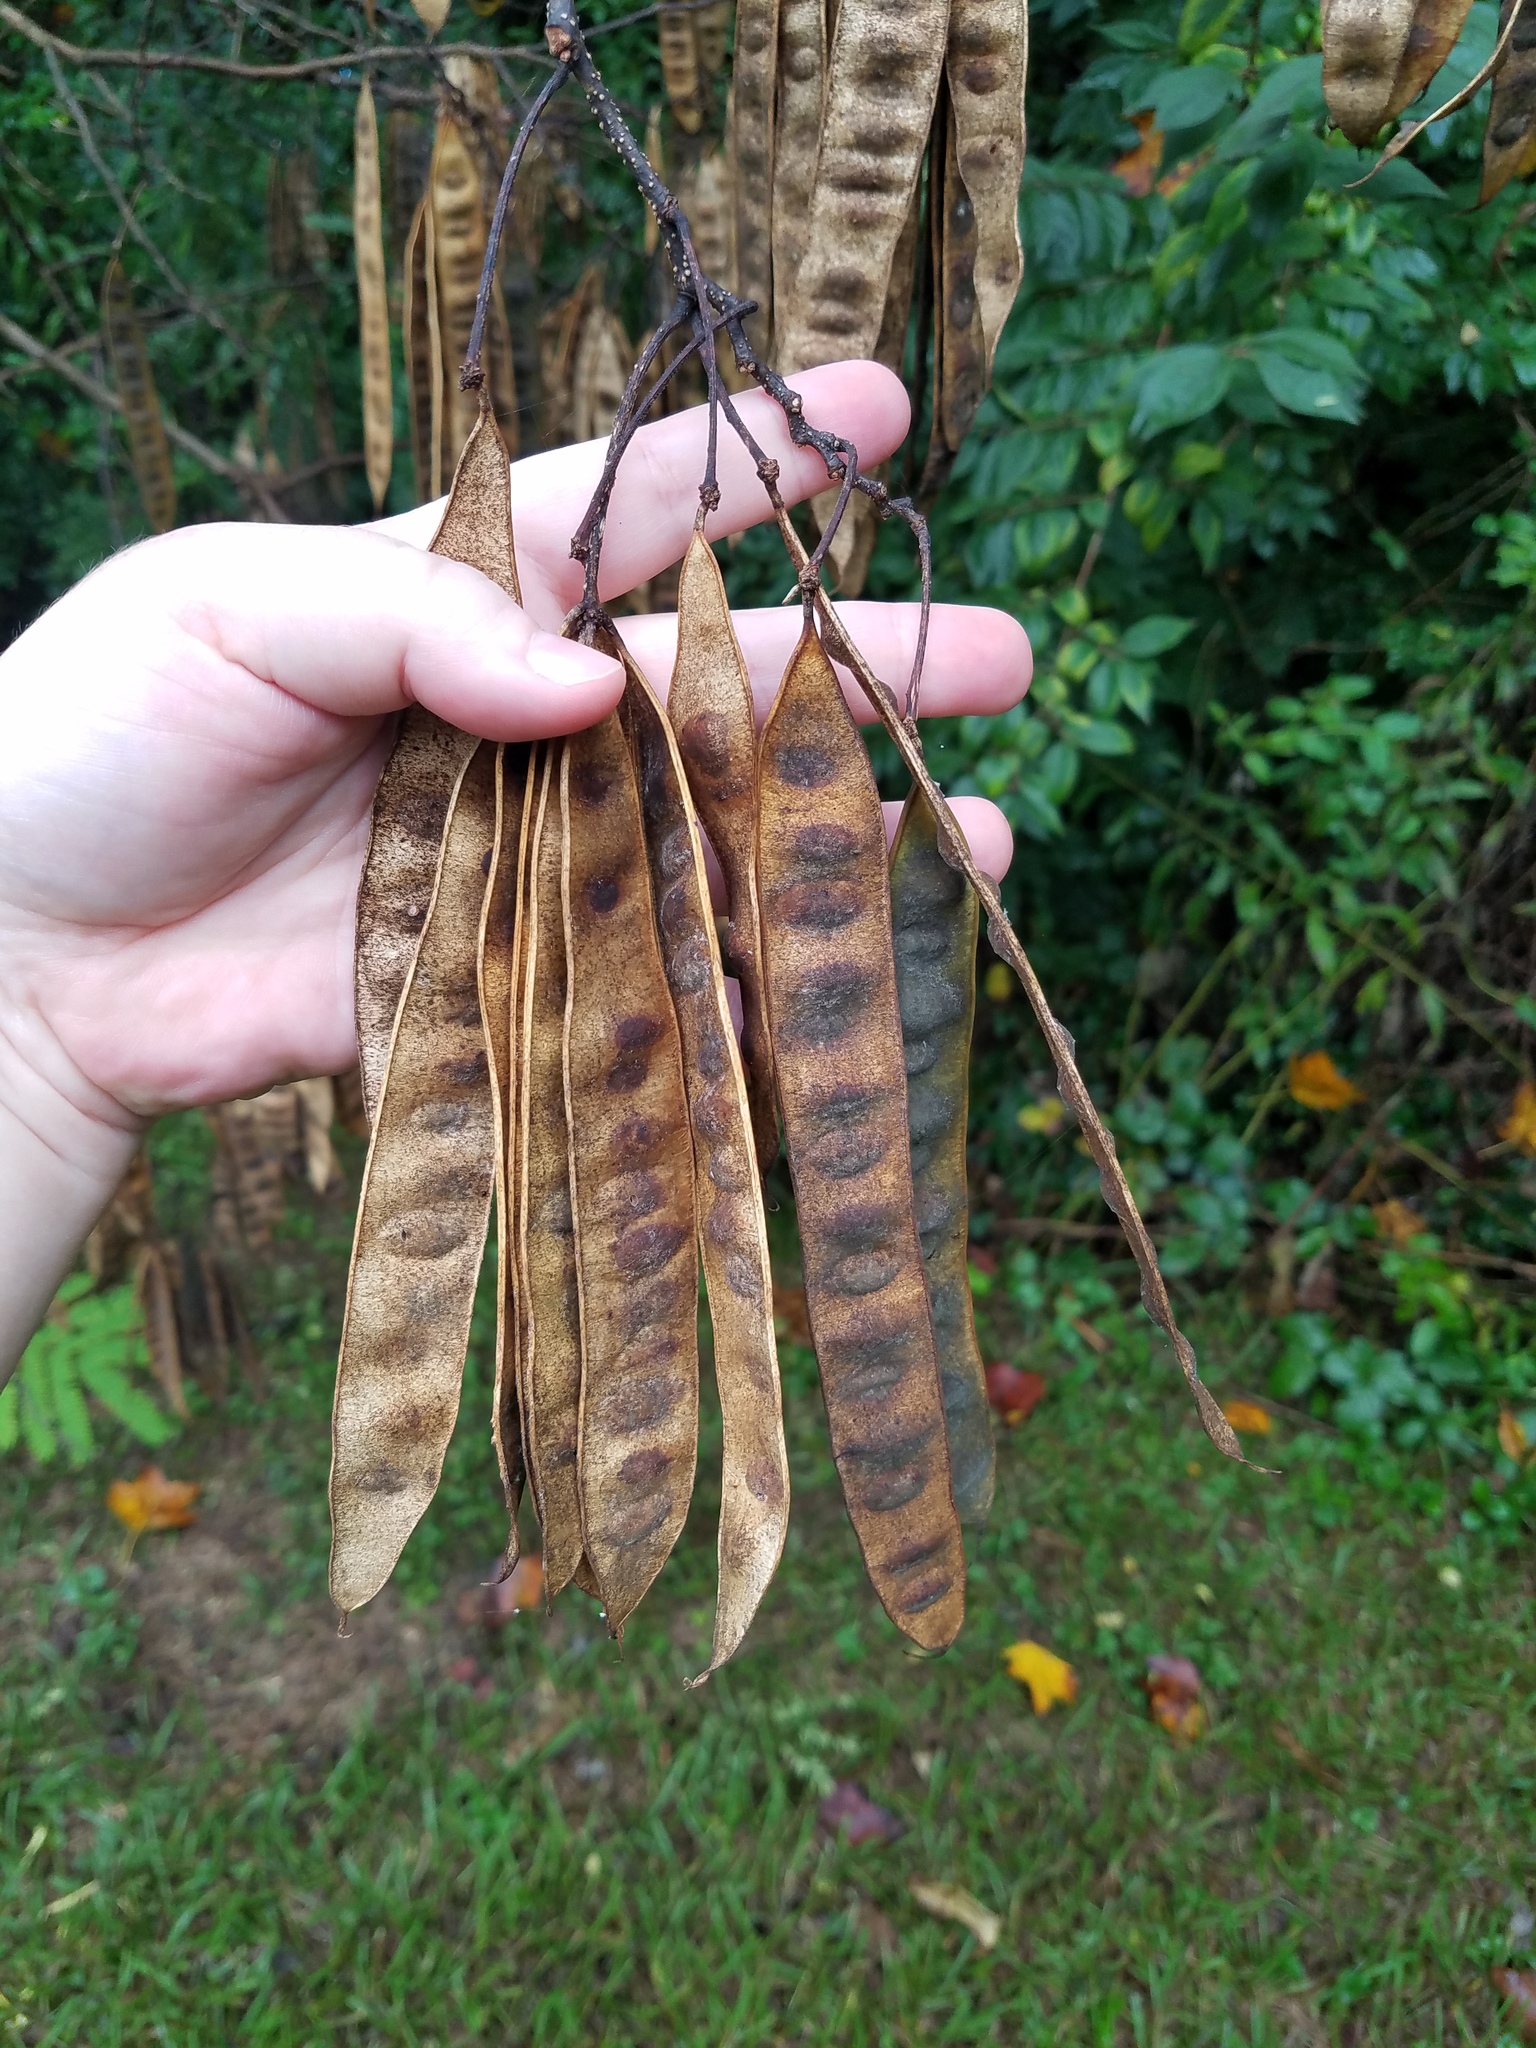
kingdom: Plantae
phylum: Tracheophyta
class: Magnoliopsida
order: Fabales
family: Fabaceae
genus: Albizia
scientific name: Albizia julibrissin
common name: Silktree
